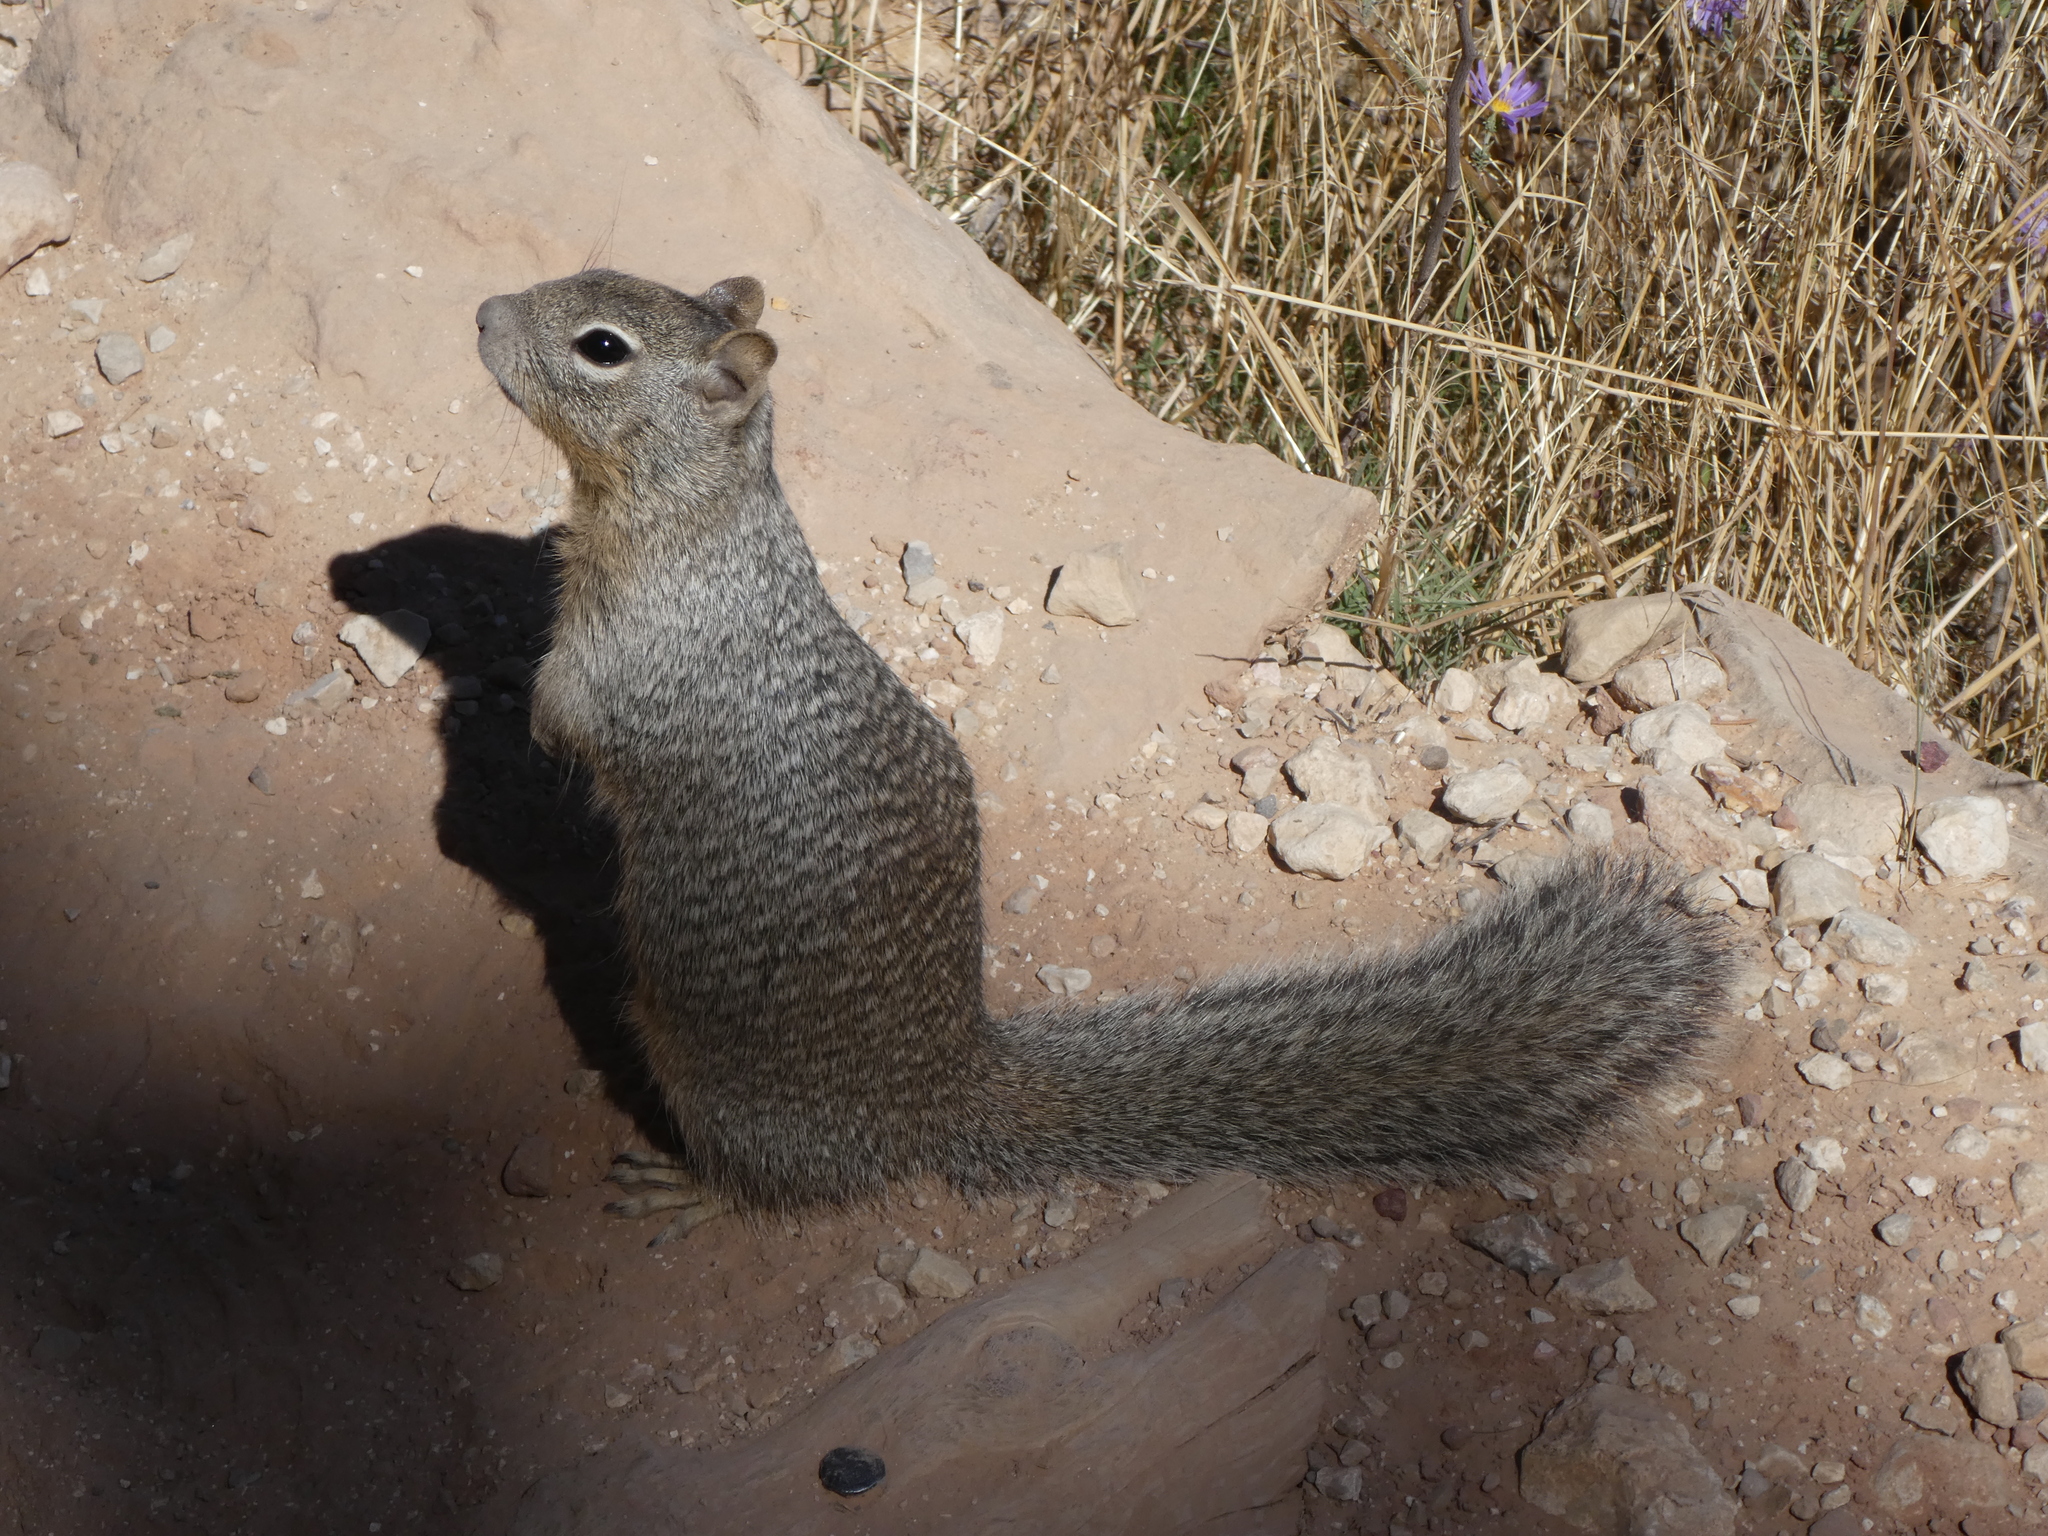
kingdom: Animalia
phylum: Chordata
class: Mammalia
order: Rodentia
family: Sciuridae
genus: Otospermophilus
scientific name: Otospermophilus variegatus
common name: Rock squirrel
